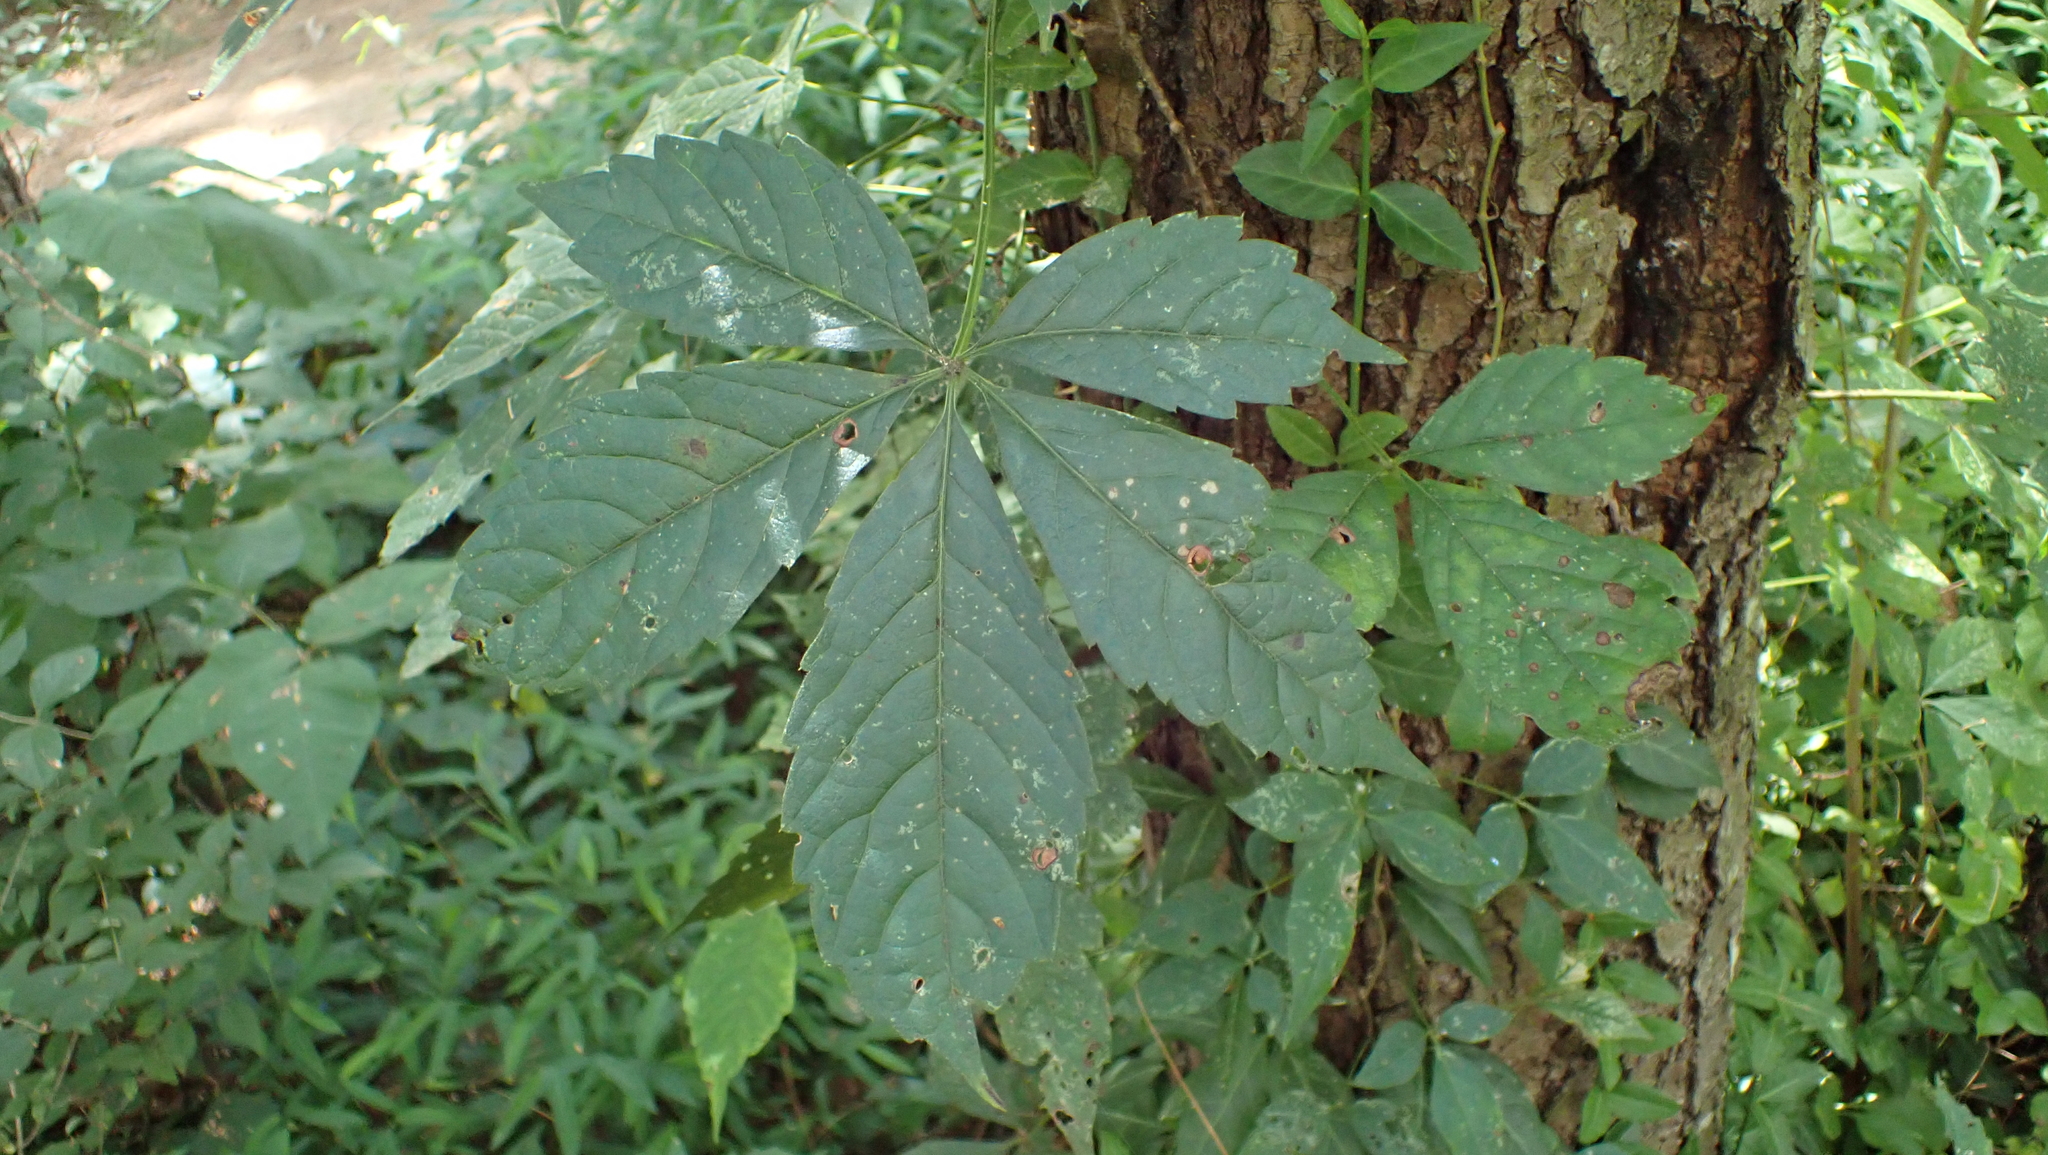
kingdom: Plantae
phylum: Tracheophyta
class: Magnoliopsida
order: Vitales
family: Vitaceae
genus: Parthenocissus
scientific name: Parthenocissus quinquefolia
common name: Virginia-creeper
